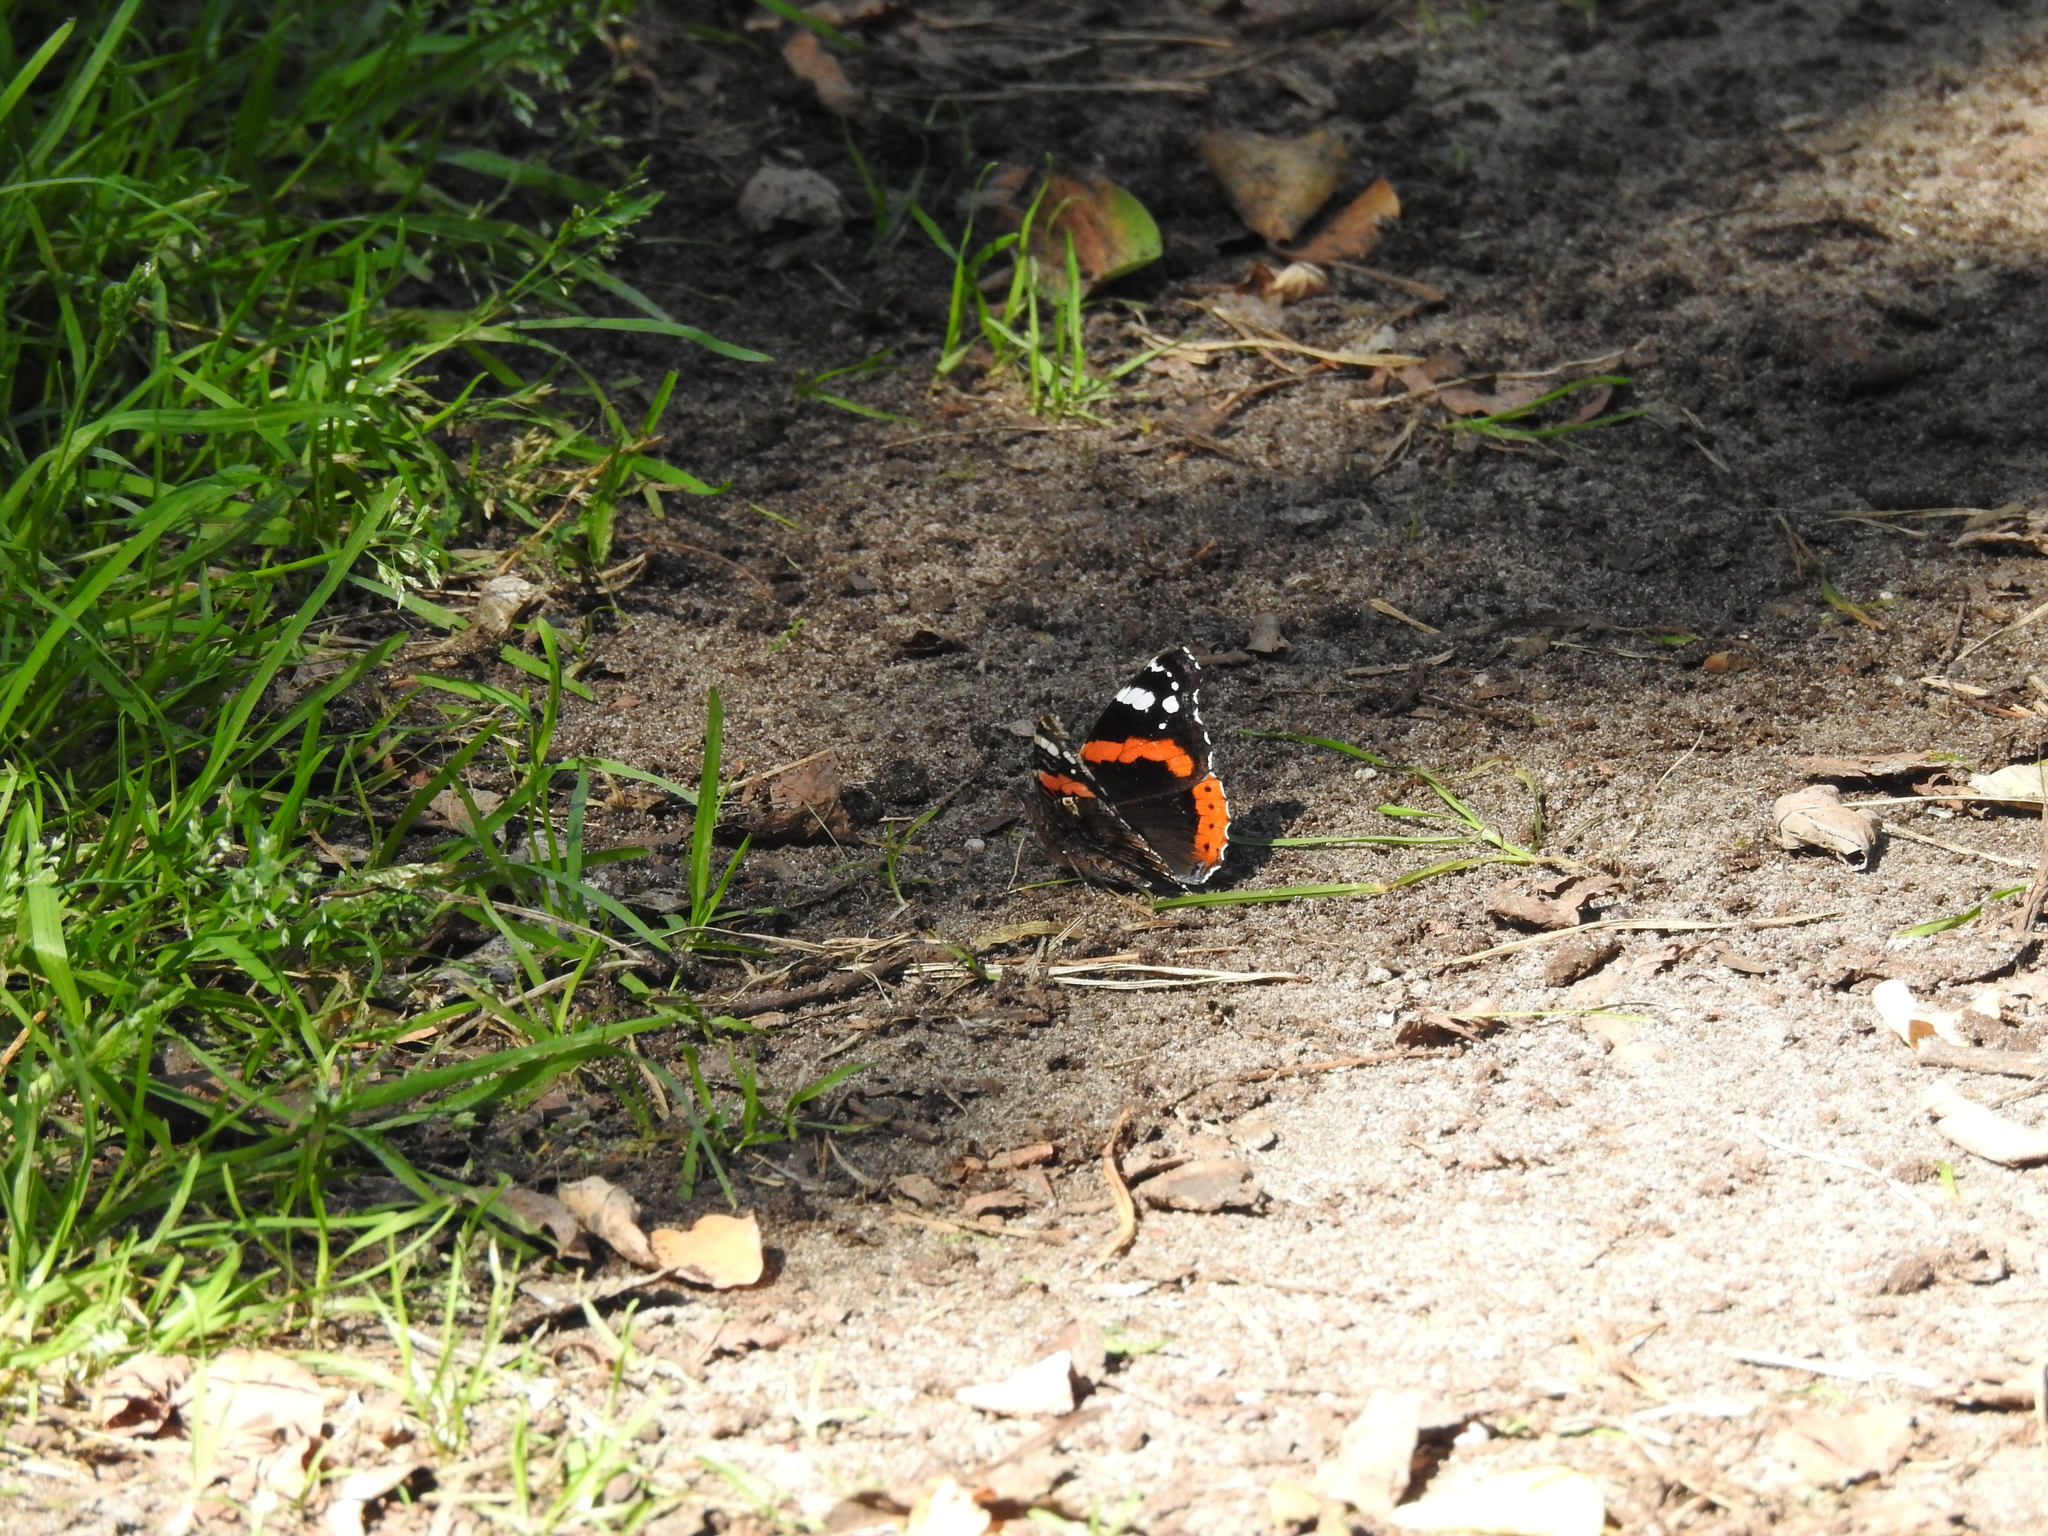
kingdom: Animalia
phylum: Arthropoda
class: Insecta
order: Lepidoptera
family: Nymphalidae
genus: Vanessa
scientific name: Vanessa atalanta
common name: Red admiral
